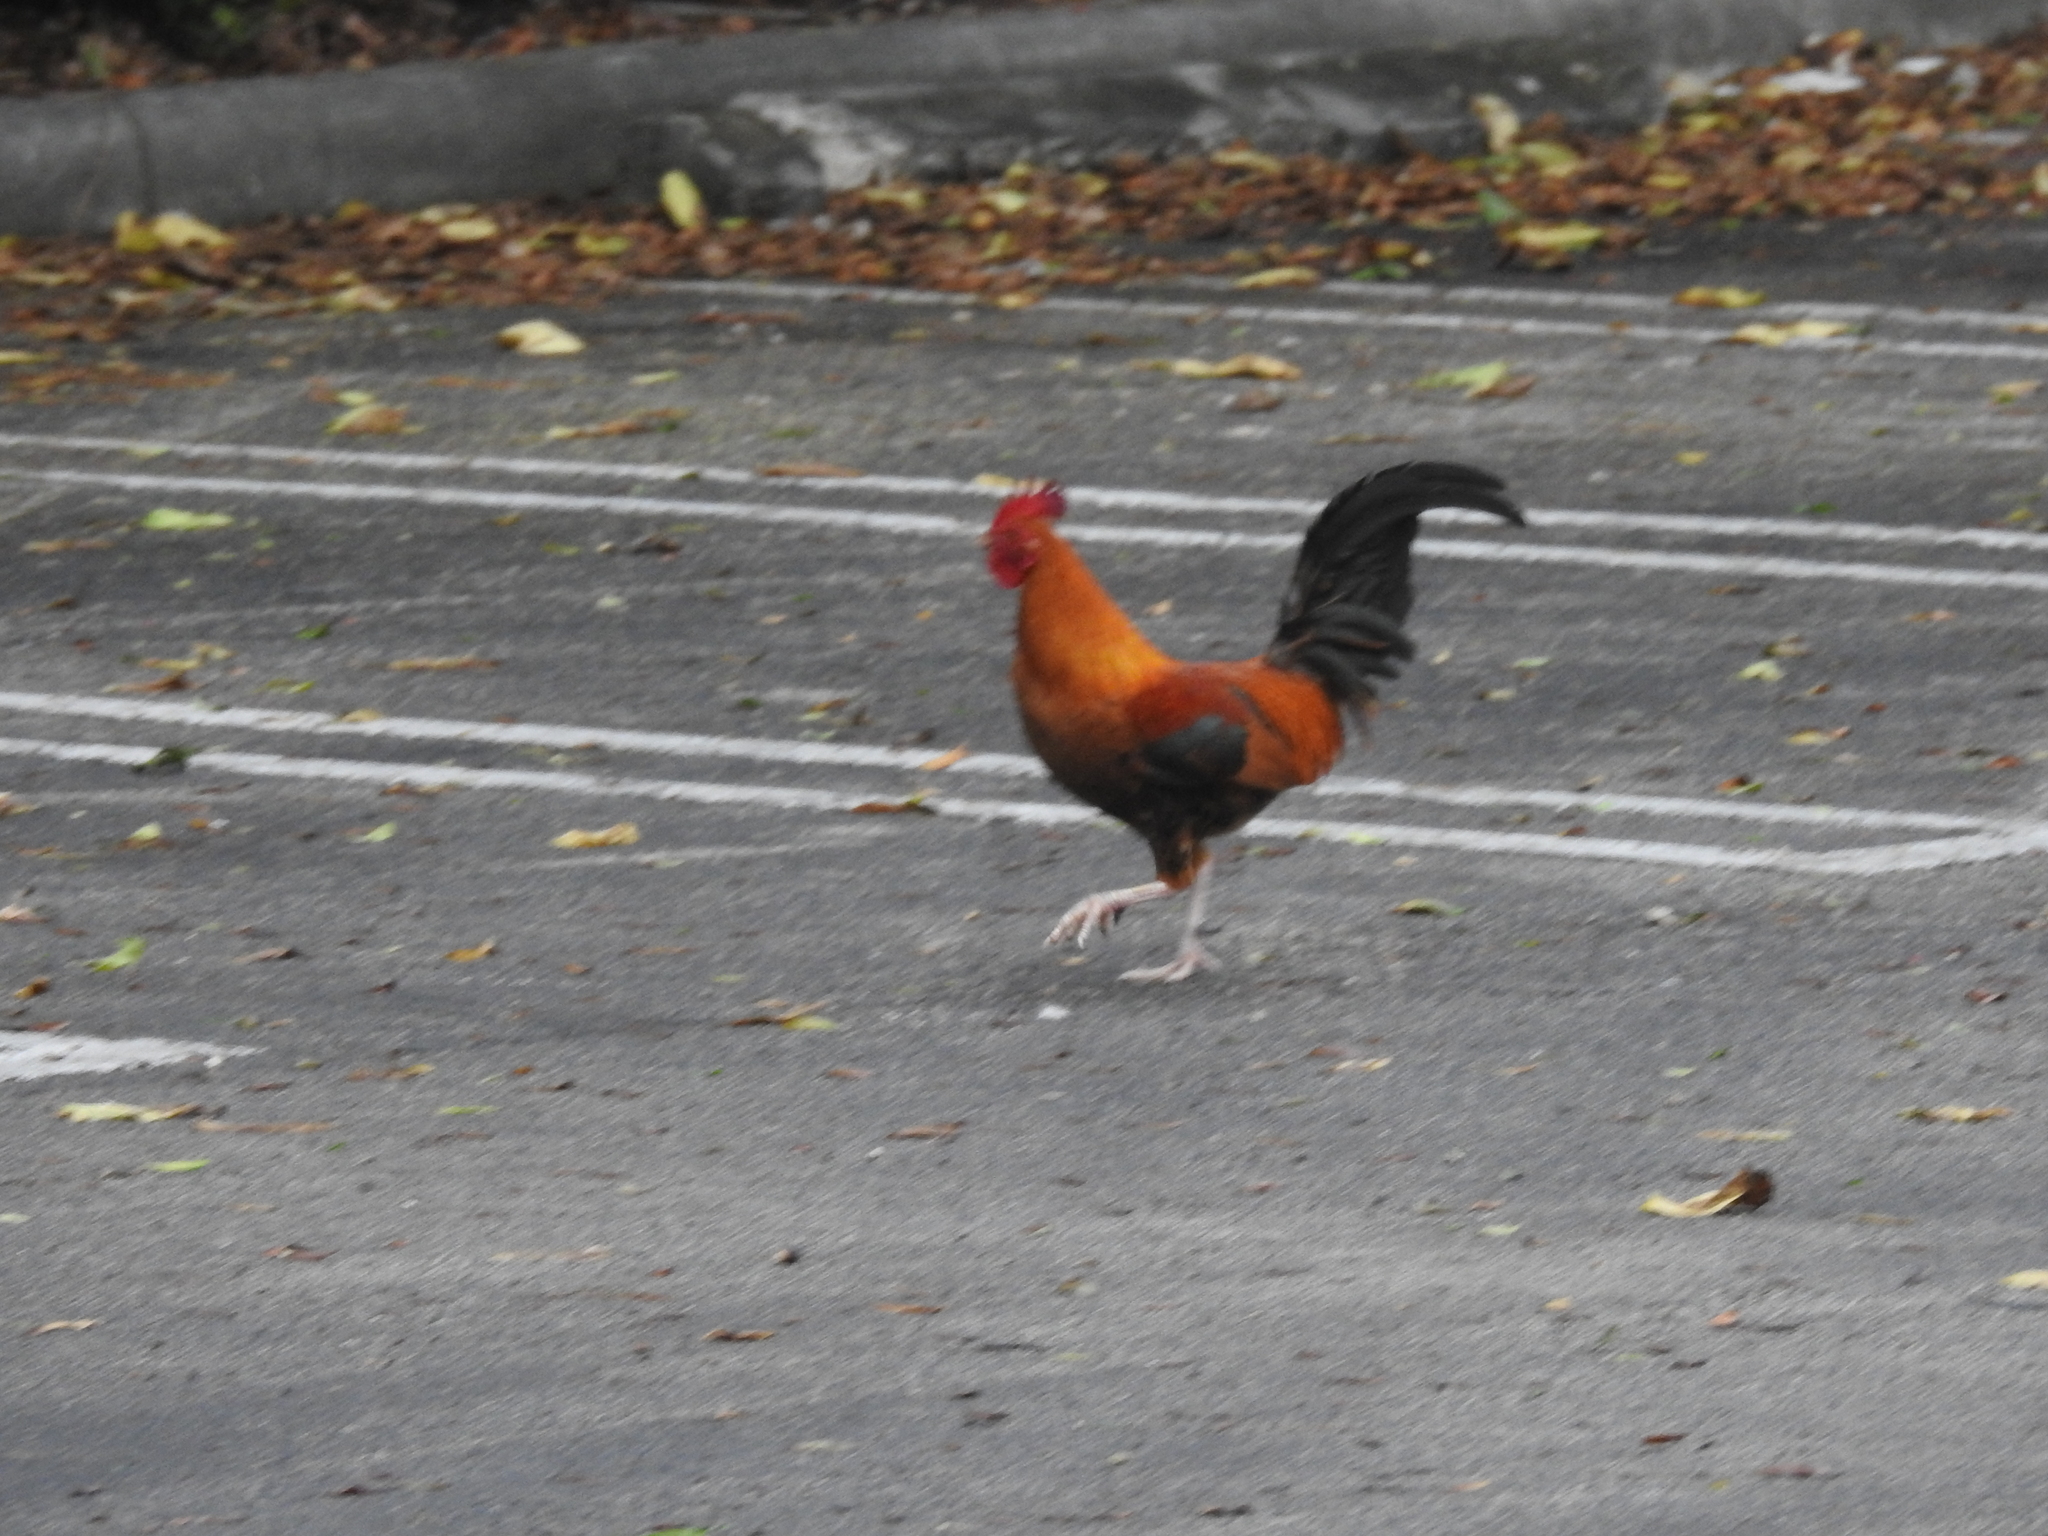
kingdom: Animalia
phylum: Chordata
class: Aves
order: Galliformes
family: Phasianidae
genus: Gallus
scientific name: Gallus gallus
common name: Red junglefowl
